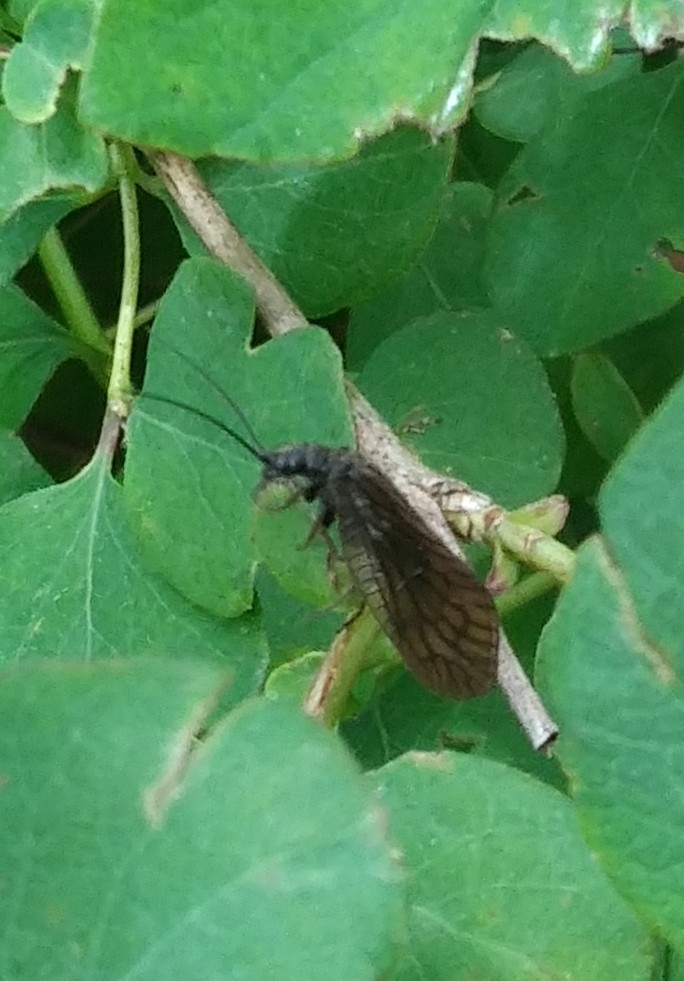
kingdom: Animalia
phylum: Arthropoda
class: Insecta
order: Megaloptera
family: Sialidae
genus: Sialis
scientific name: Sialis
